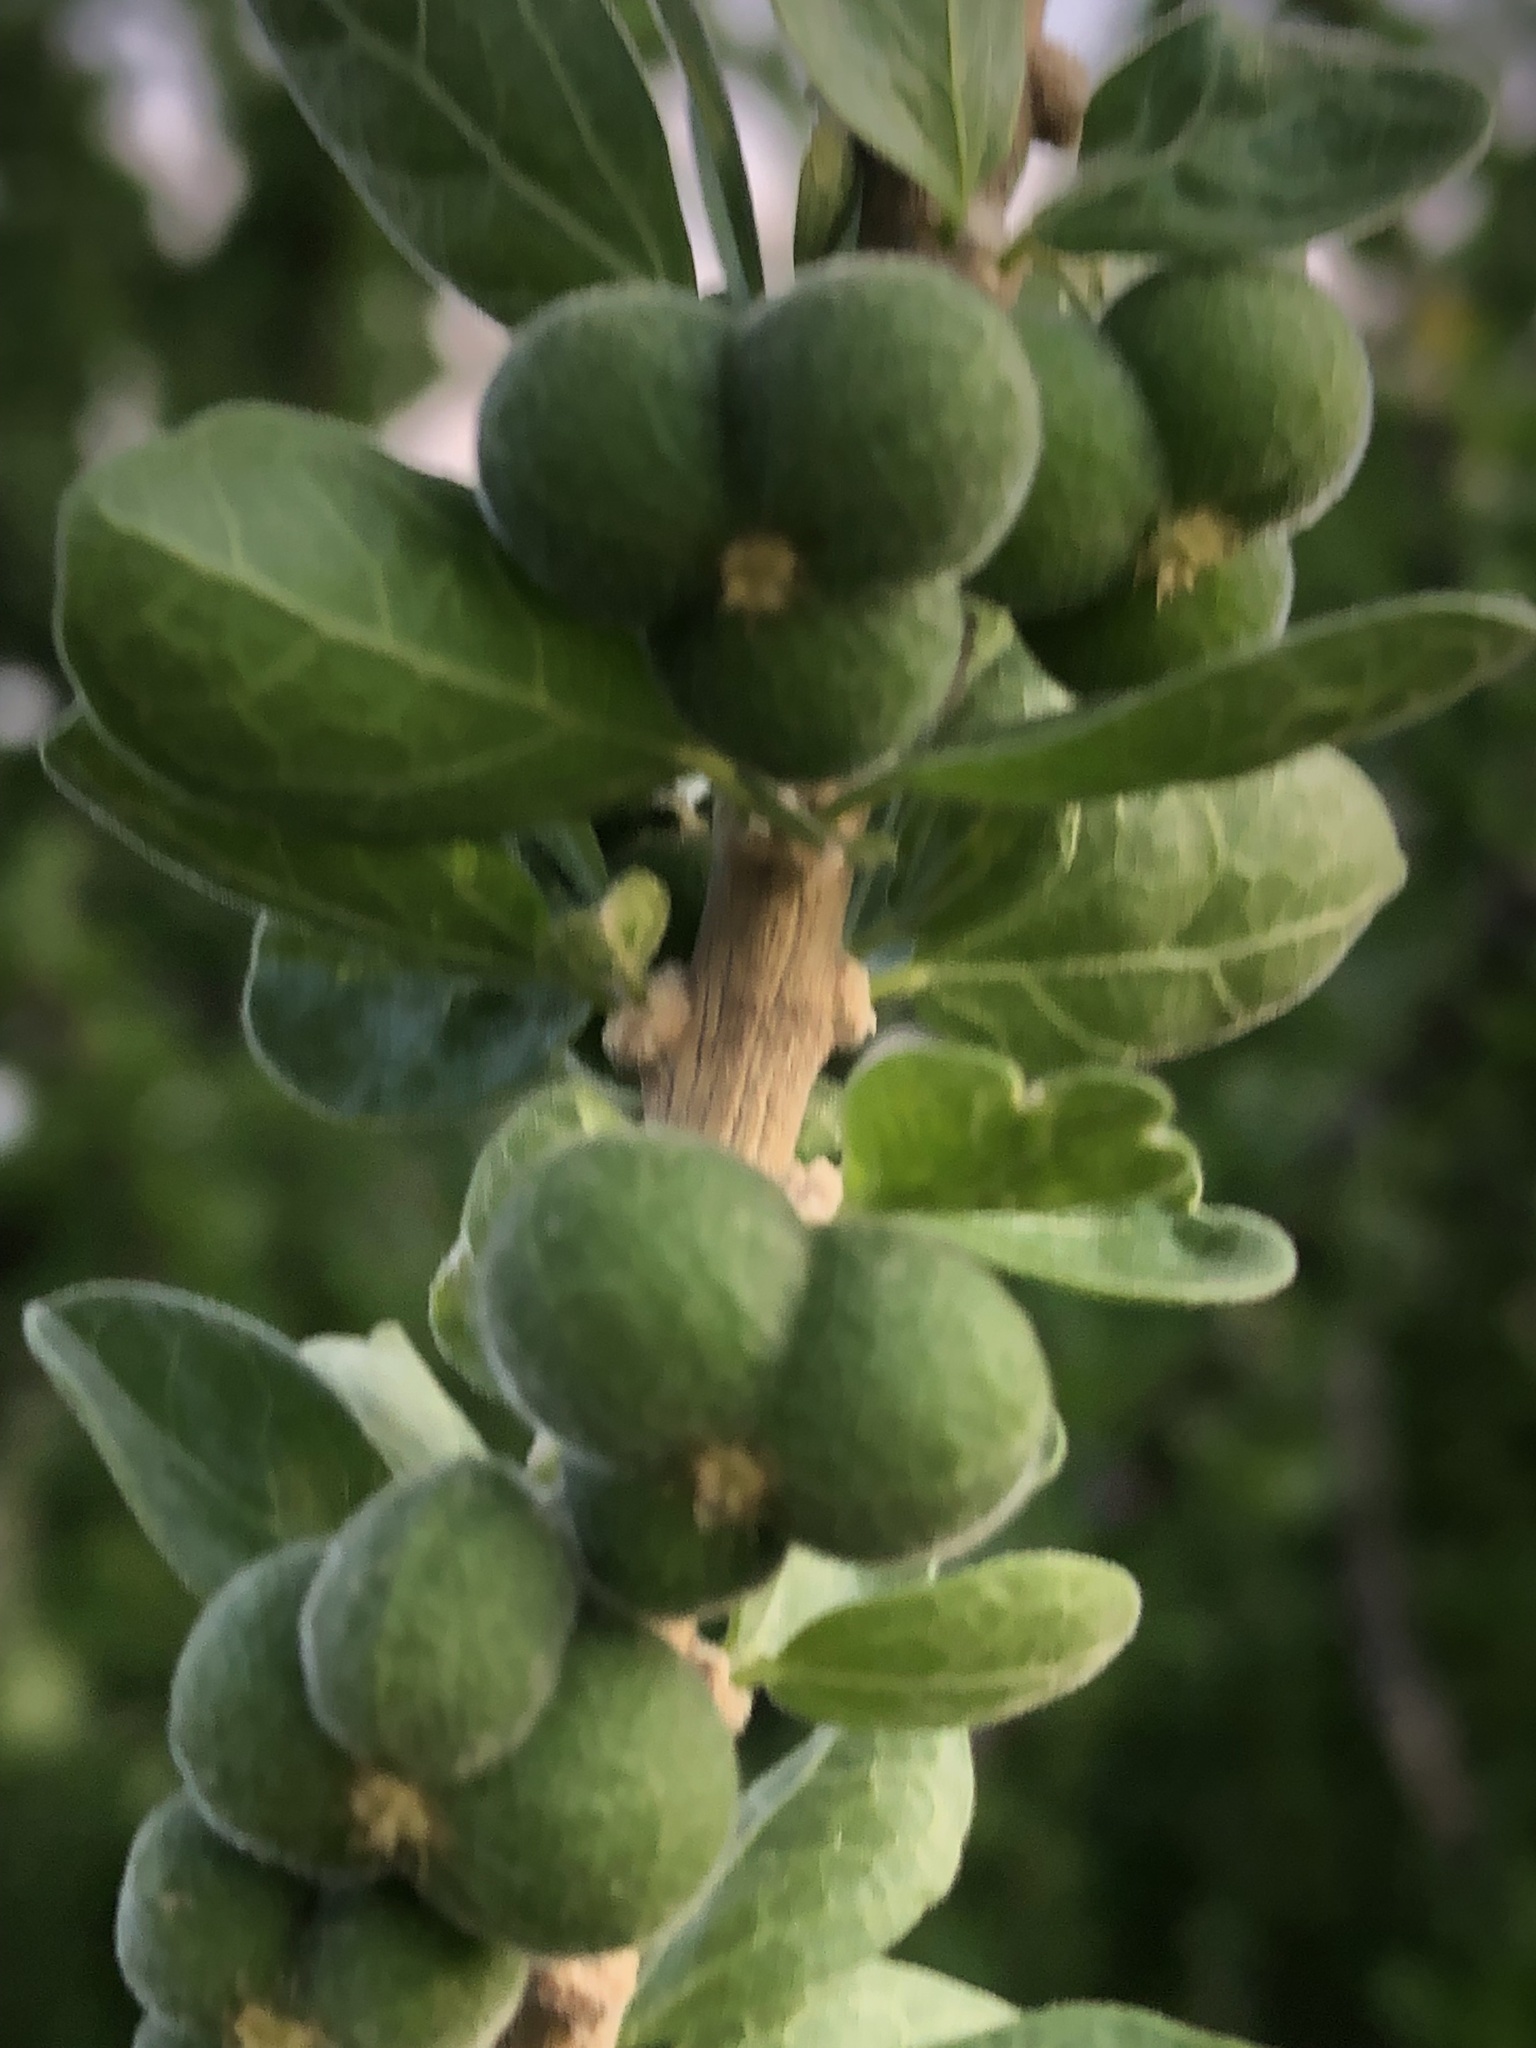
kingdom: Plantae
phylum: Tracheophyta
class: Magnoliopsida
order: Malpighiales
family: Euphorbiaceae
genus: Adelia
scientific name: Adelia obovata
